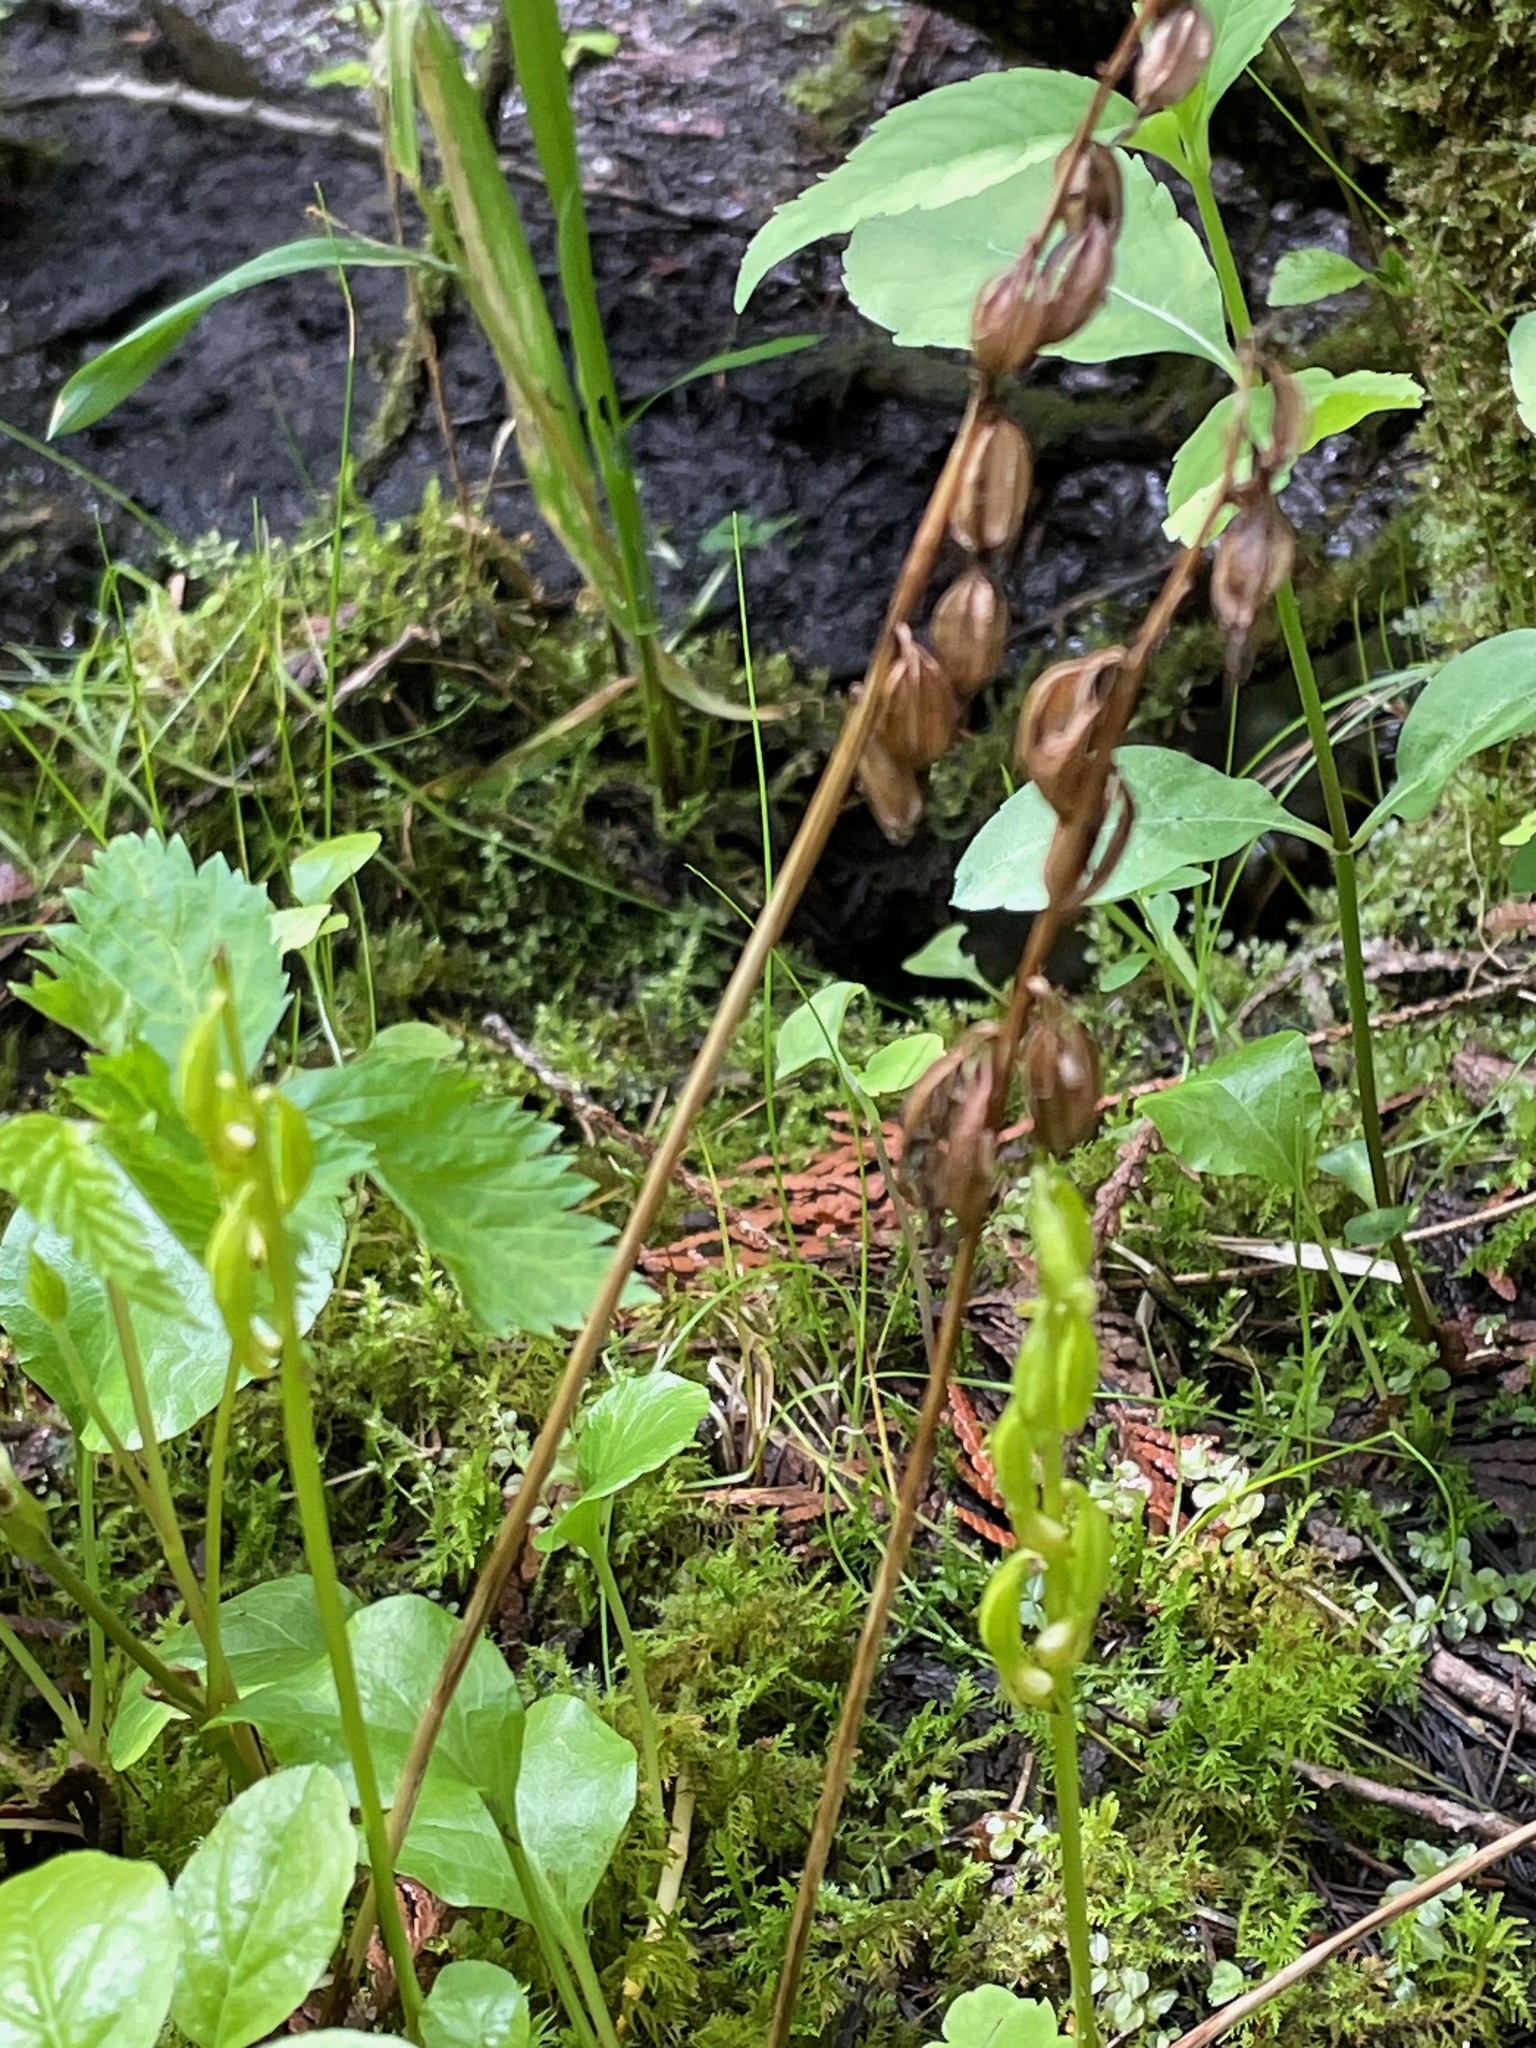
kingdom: Plantae
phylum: Tracheophyta
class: Liliopsida
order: Asparagales
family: Orchidaceae
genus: Corallorhiza
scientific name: Corallorhiza trifida
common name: Yellow coralroot
